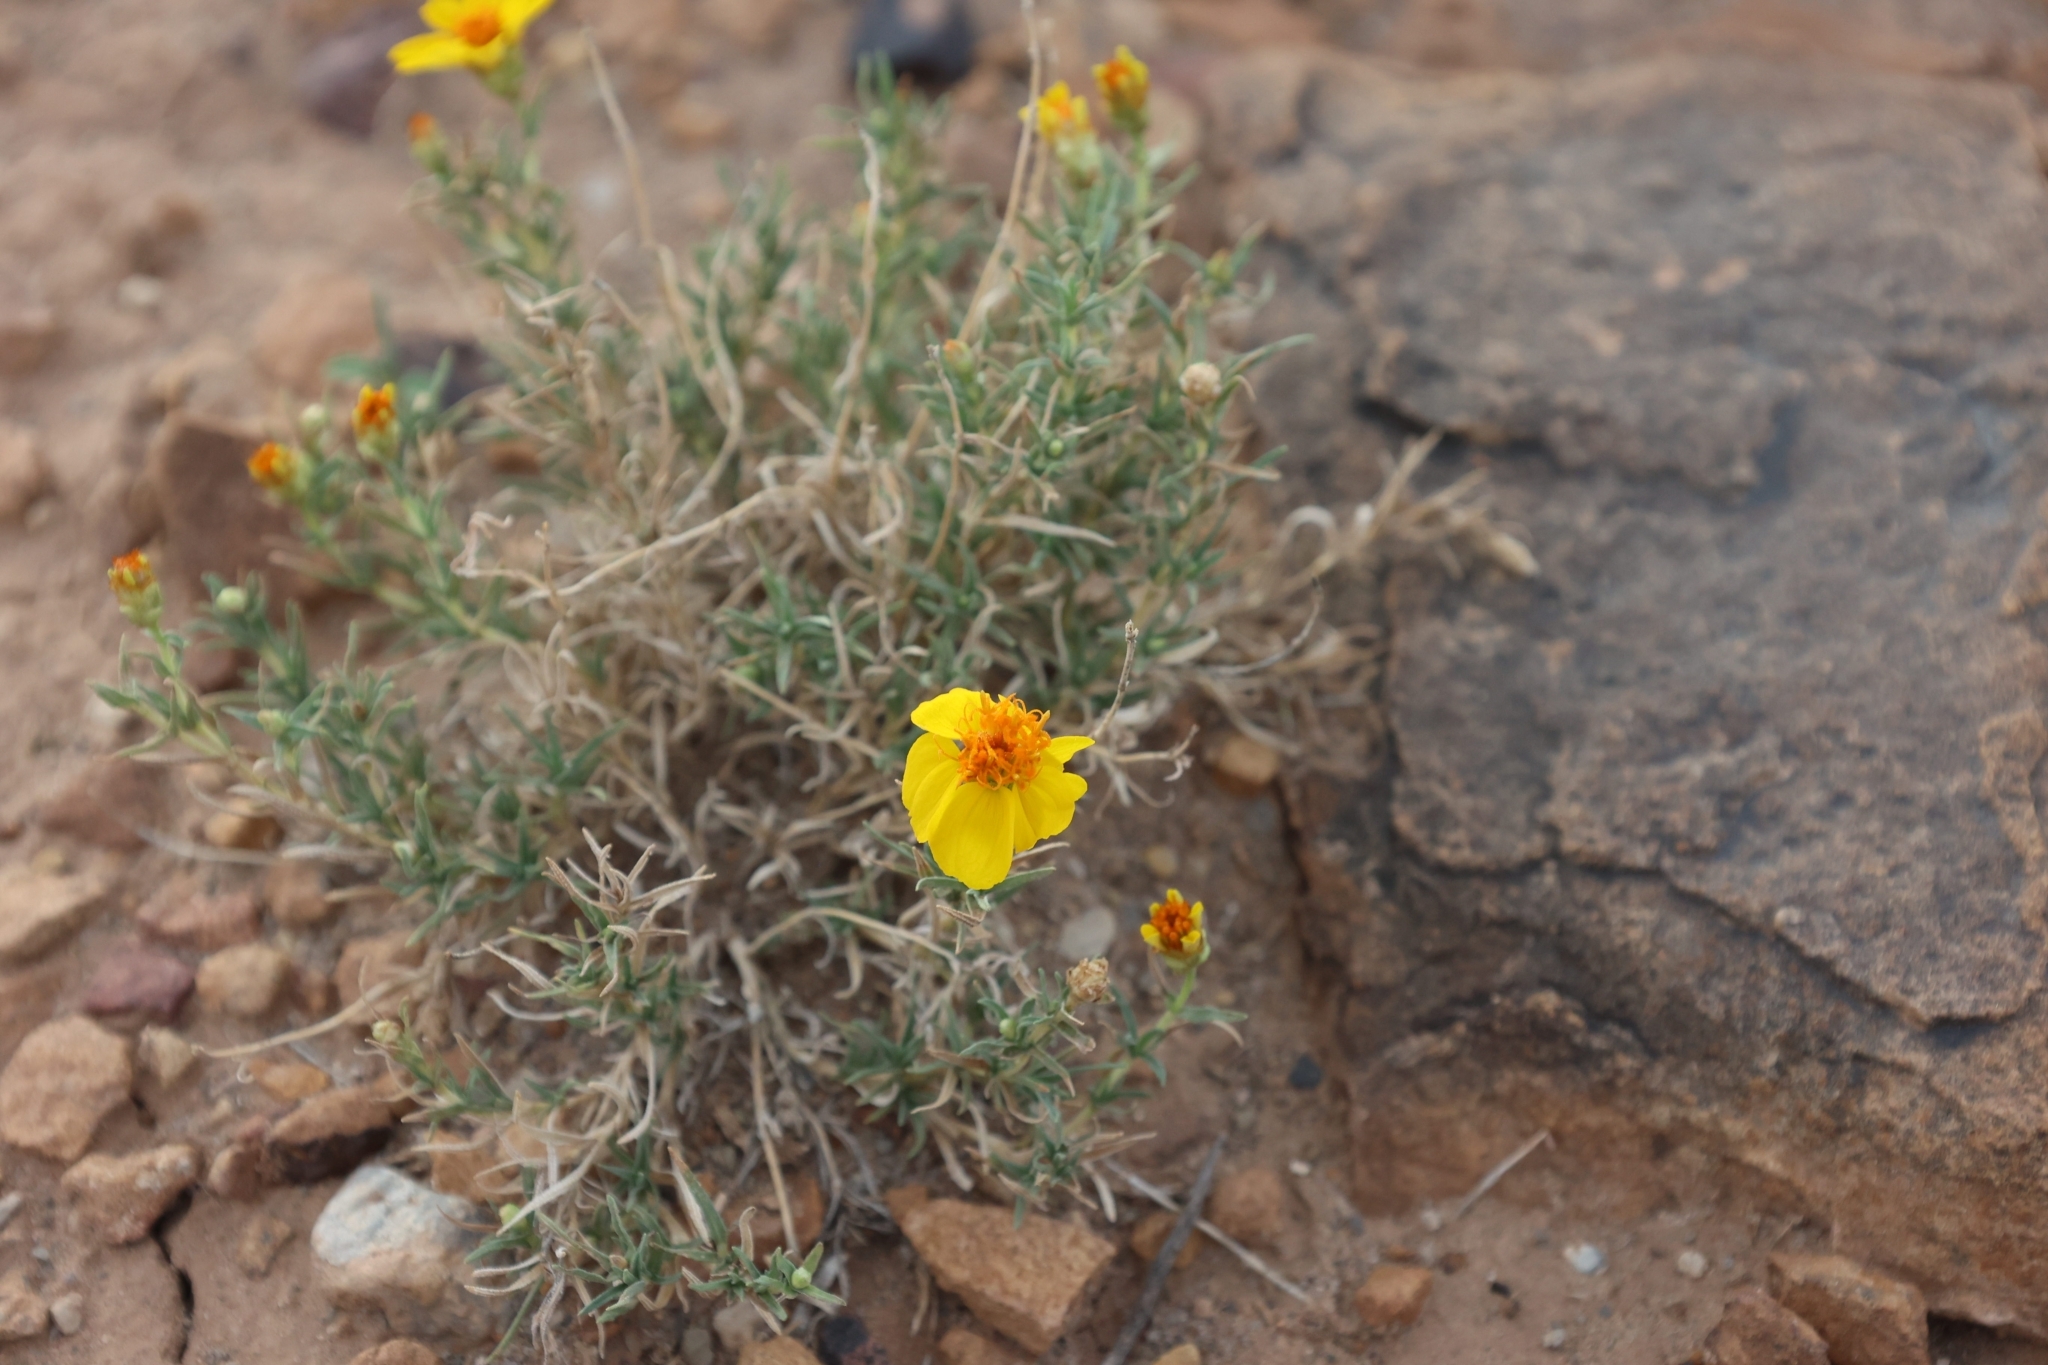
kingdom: Plantae
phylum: Tracheophyta
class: Magnoliopsida
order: Asterales
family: Asteraceae
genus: Zinnia
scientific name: Zinnia grandiflora
